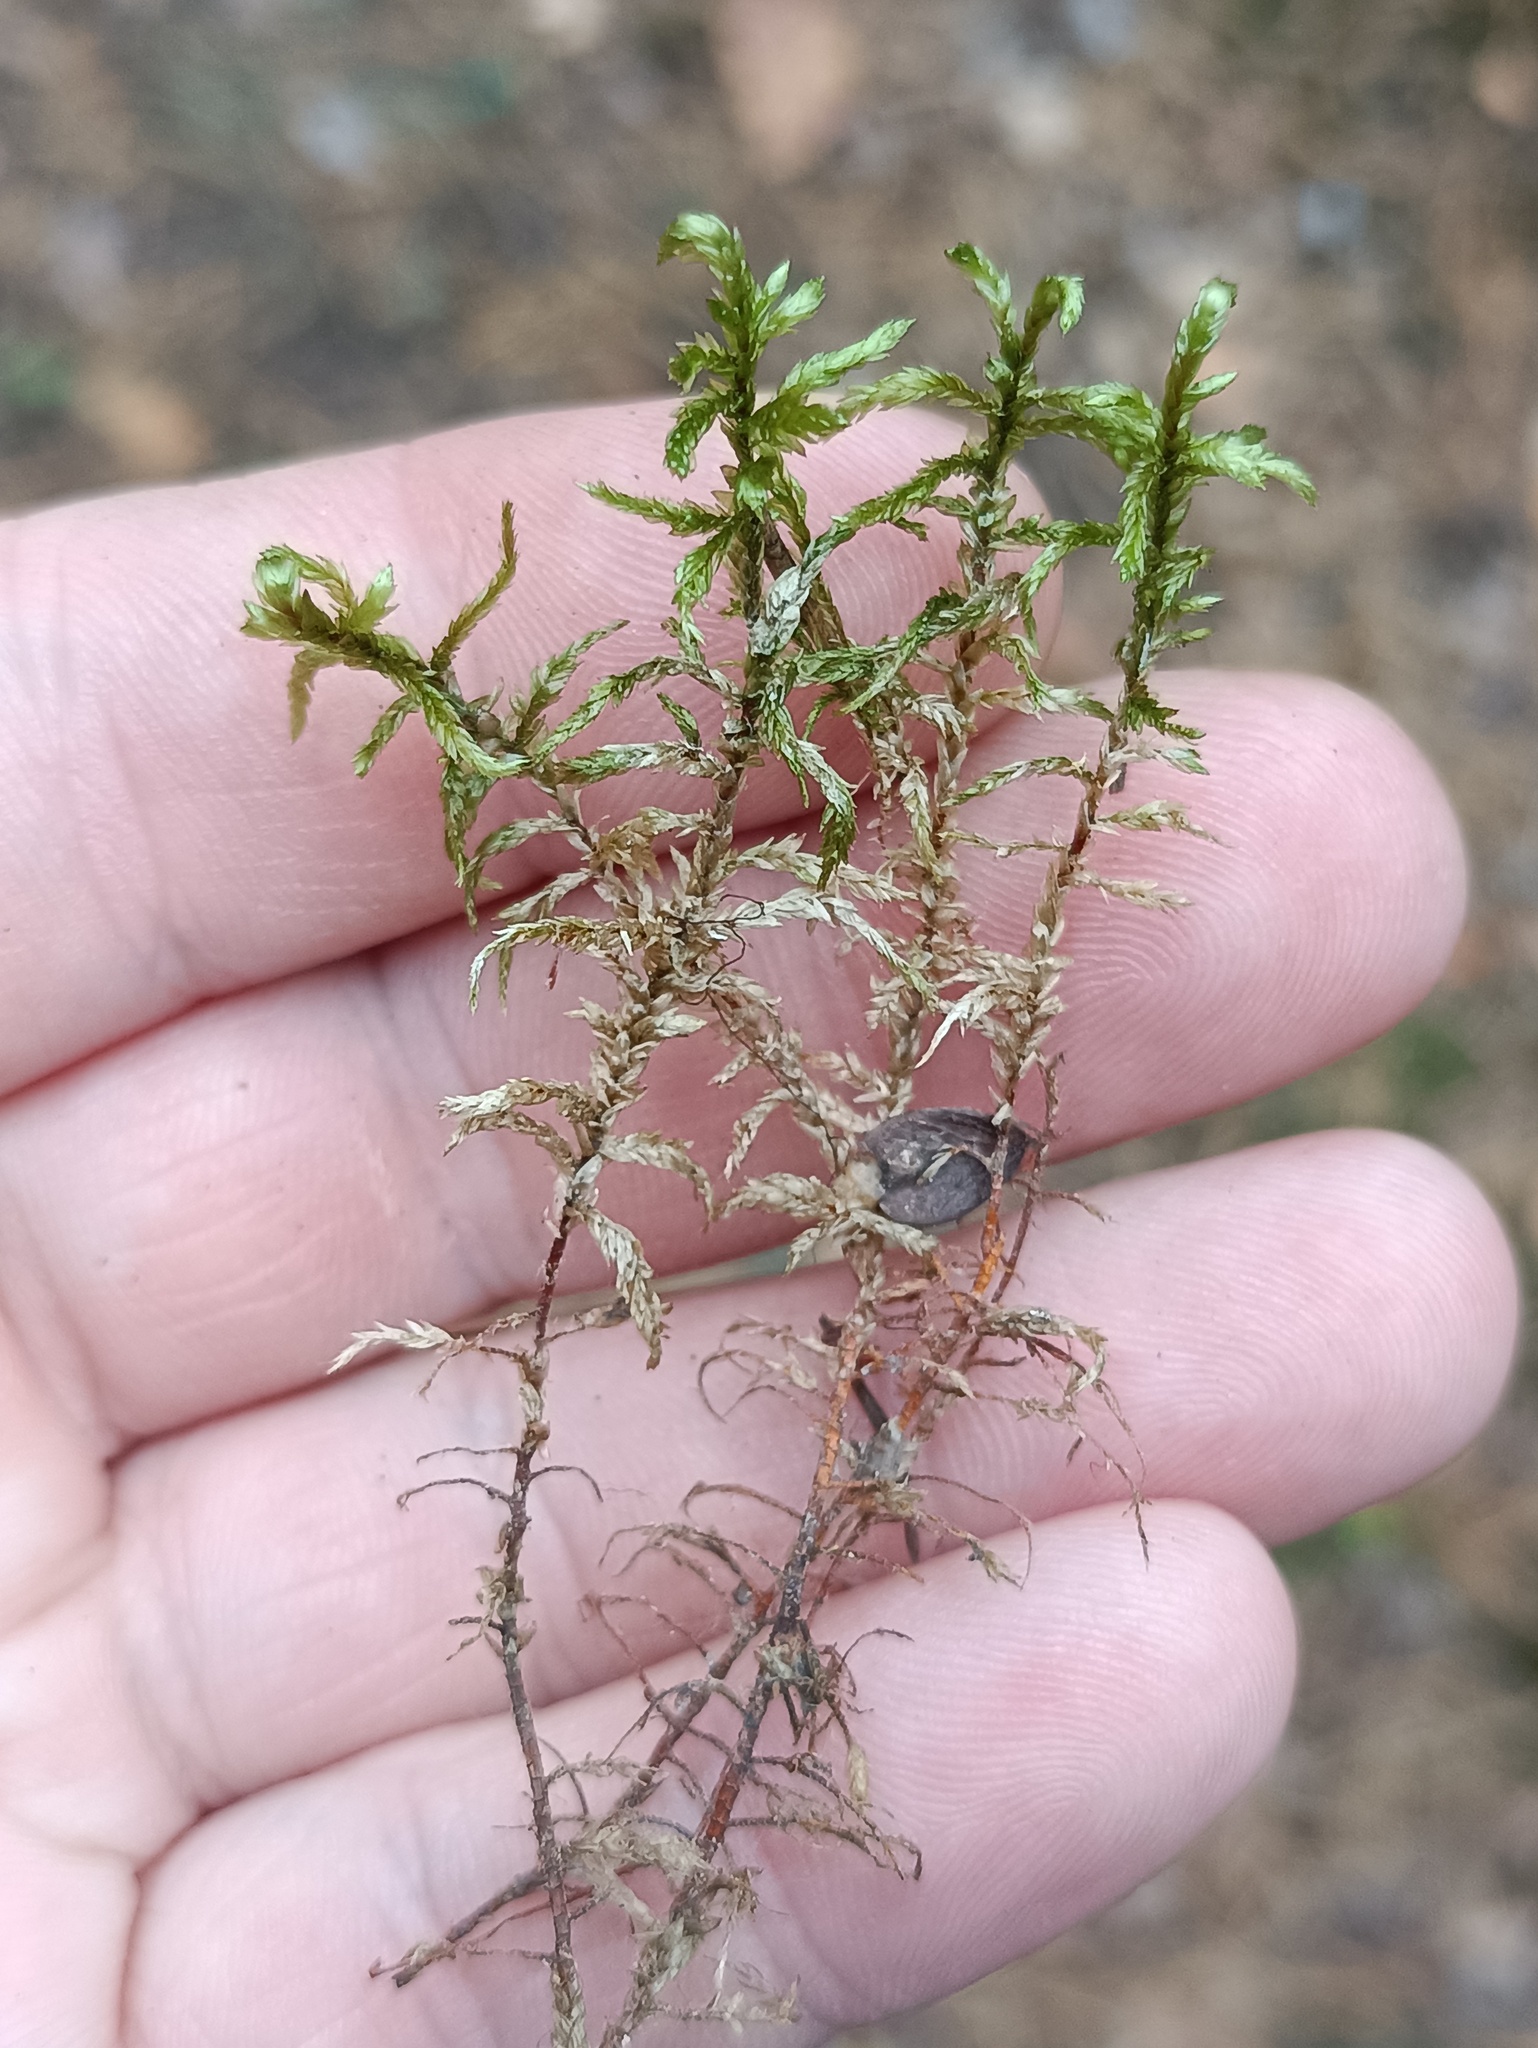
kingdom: Plantae
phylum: Bryophyta
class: Bryopsida
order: Hypnales
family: Hylocomiaceae
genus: Pleurozium
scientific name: Pleurozium schreberi
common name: Red-stemmed feather moss
